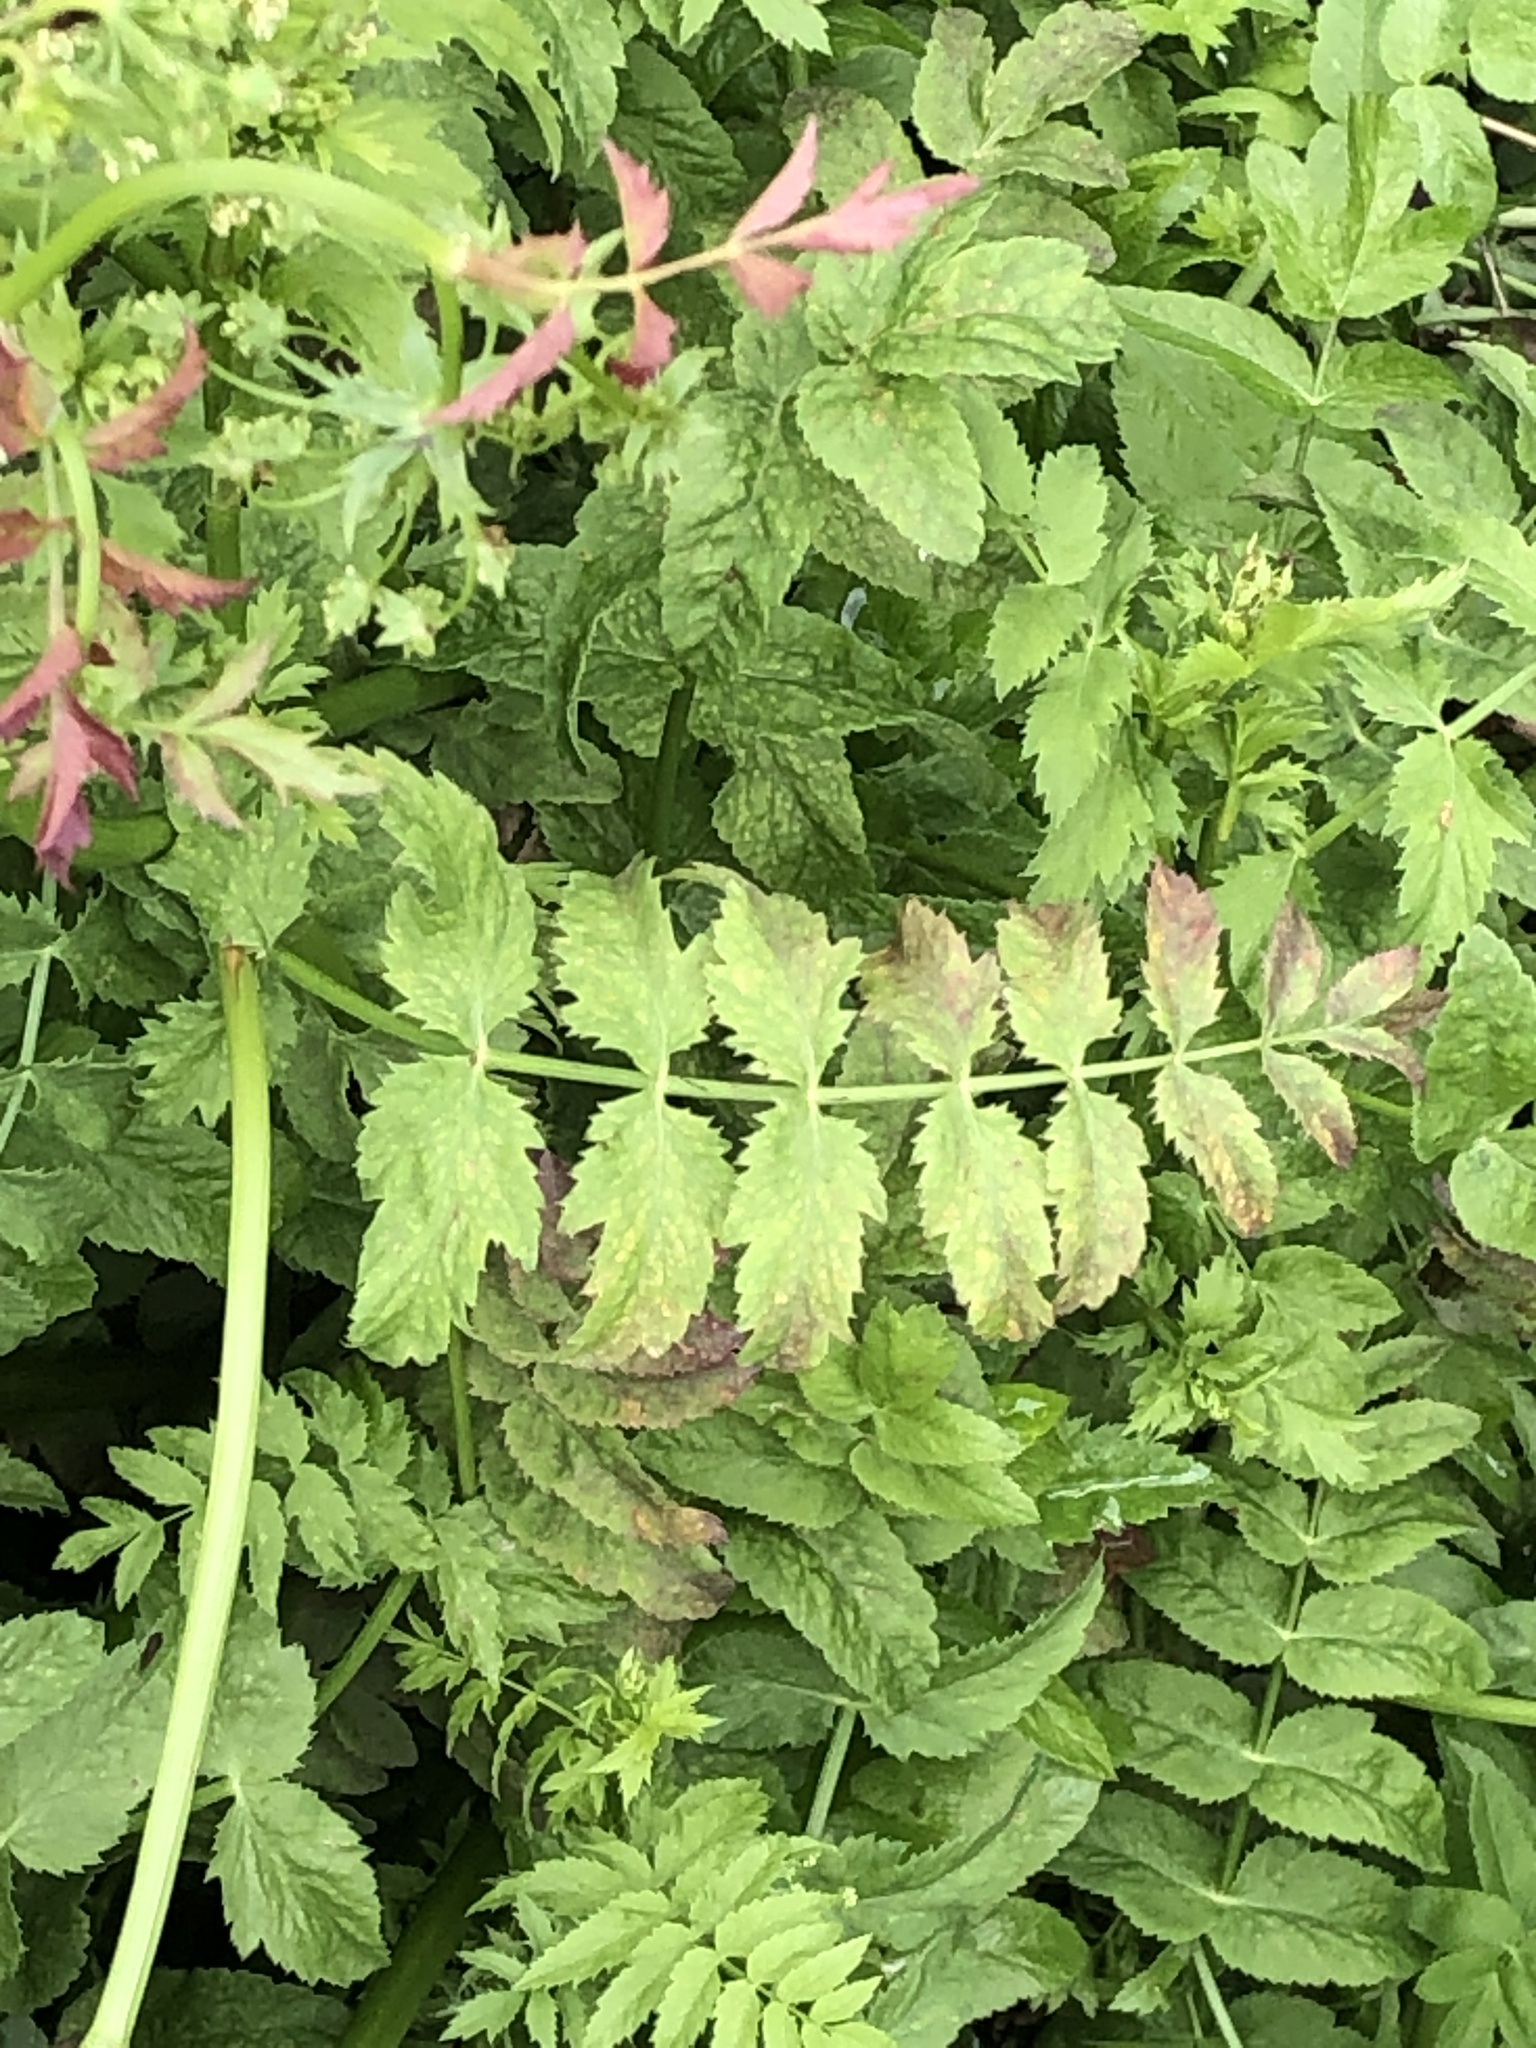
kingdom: Plantae
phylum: Tracheophyta
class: Magnoliopsida
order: Apiales
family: Apiaceae
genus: Berula
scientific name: Berula erecta
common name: Lesser water-parsnip
